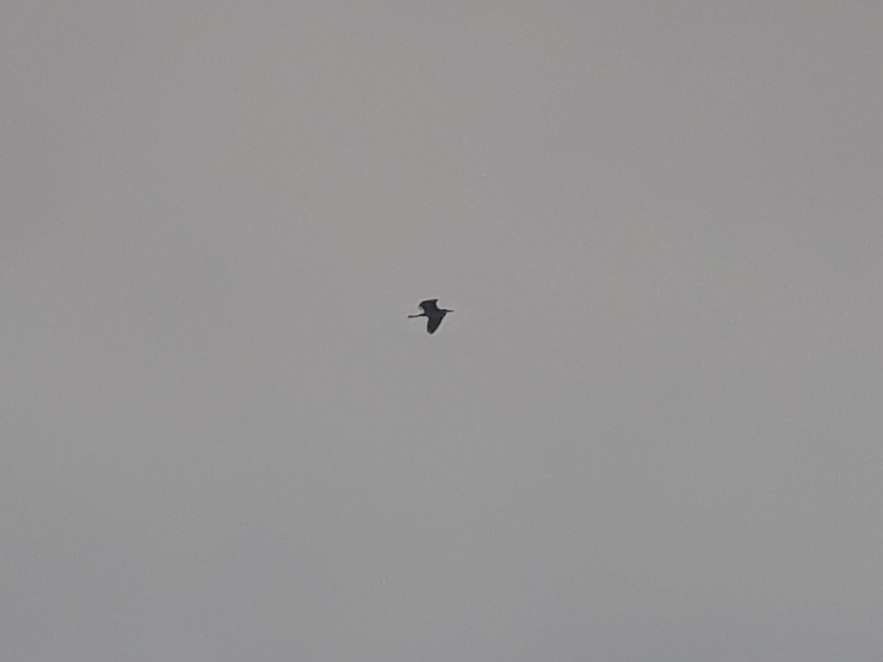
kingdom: Animalia
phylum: Chordata
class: Aves
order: Pelecaniformes
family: Ardeidae
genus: Ardea
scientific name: Ardea herodias
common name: Great blue heron
